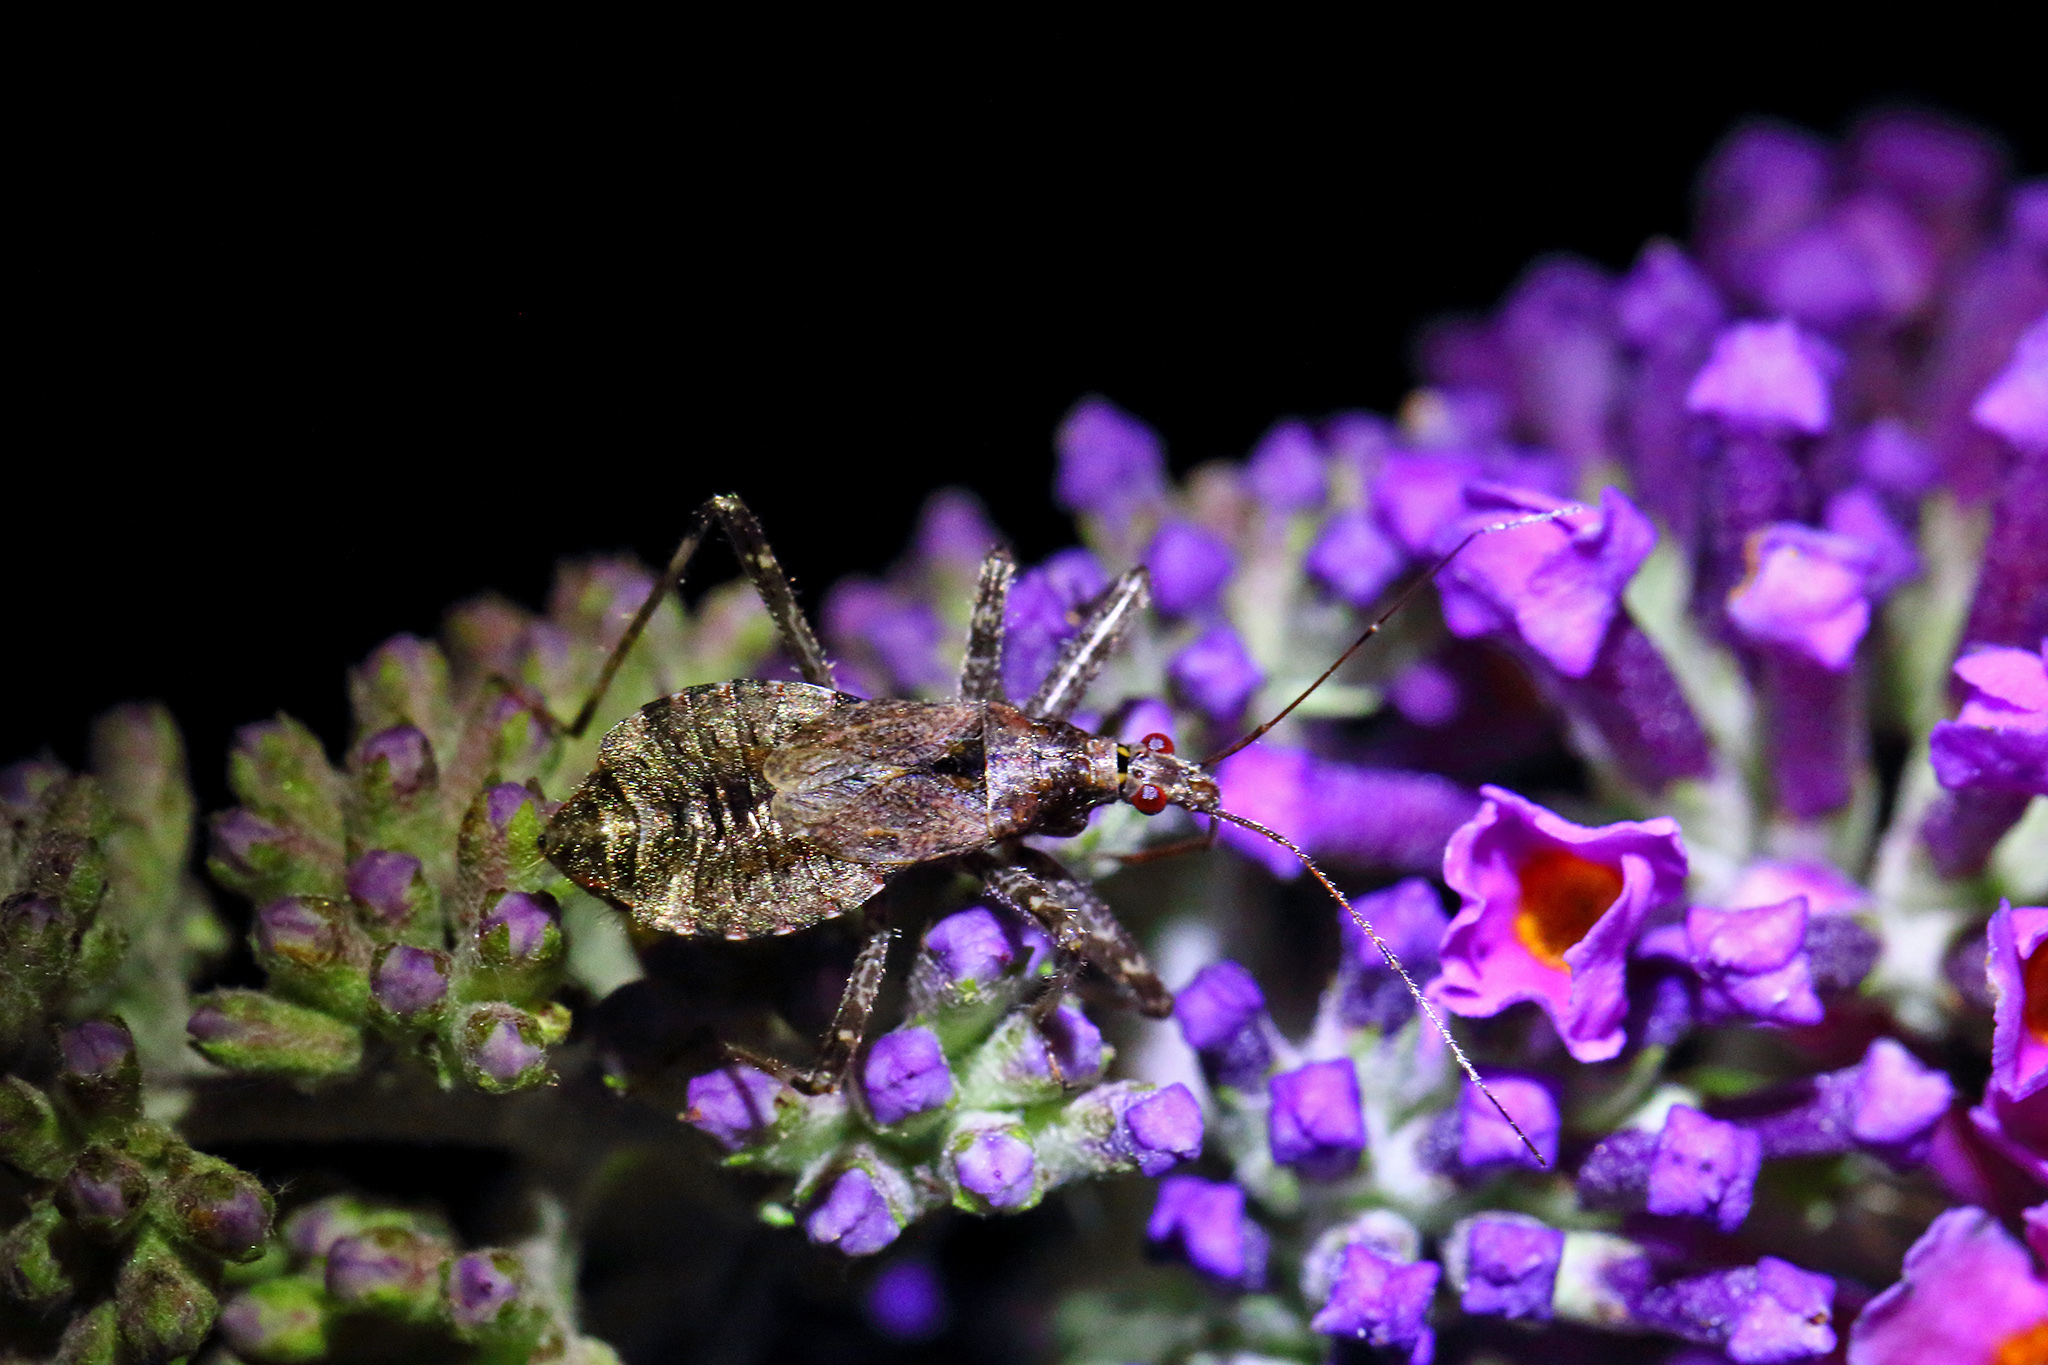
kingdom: Animalia
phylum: Arthropoda
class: Insecta
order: Hemiptera
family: Nabidae
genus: Himacerus
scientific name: Himacerus apterus
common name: Tree damsel bug
